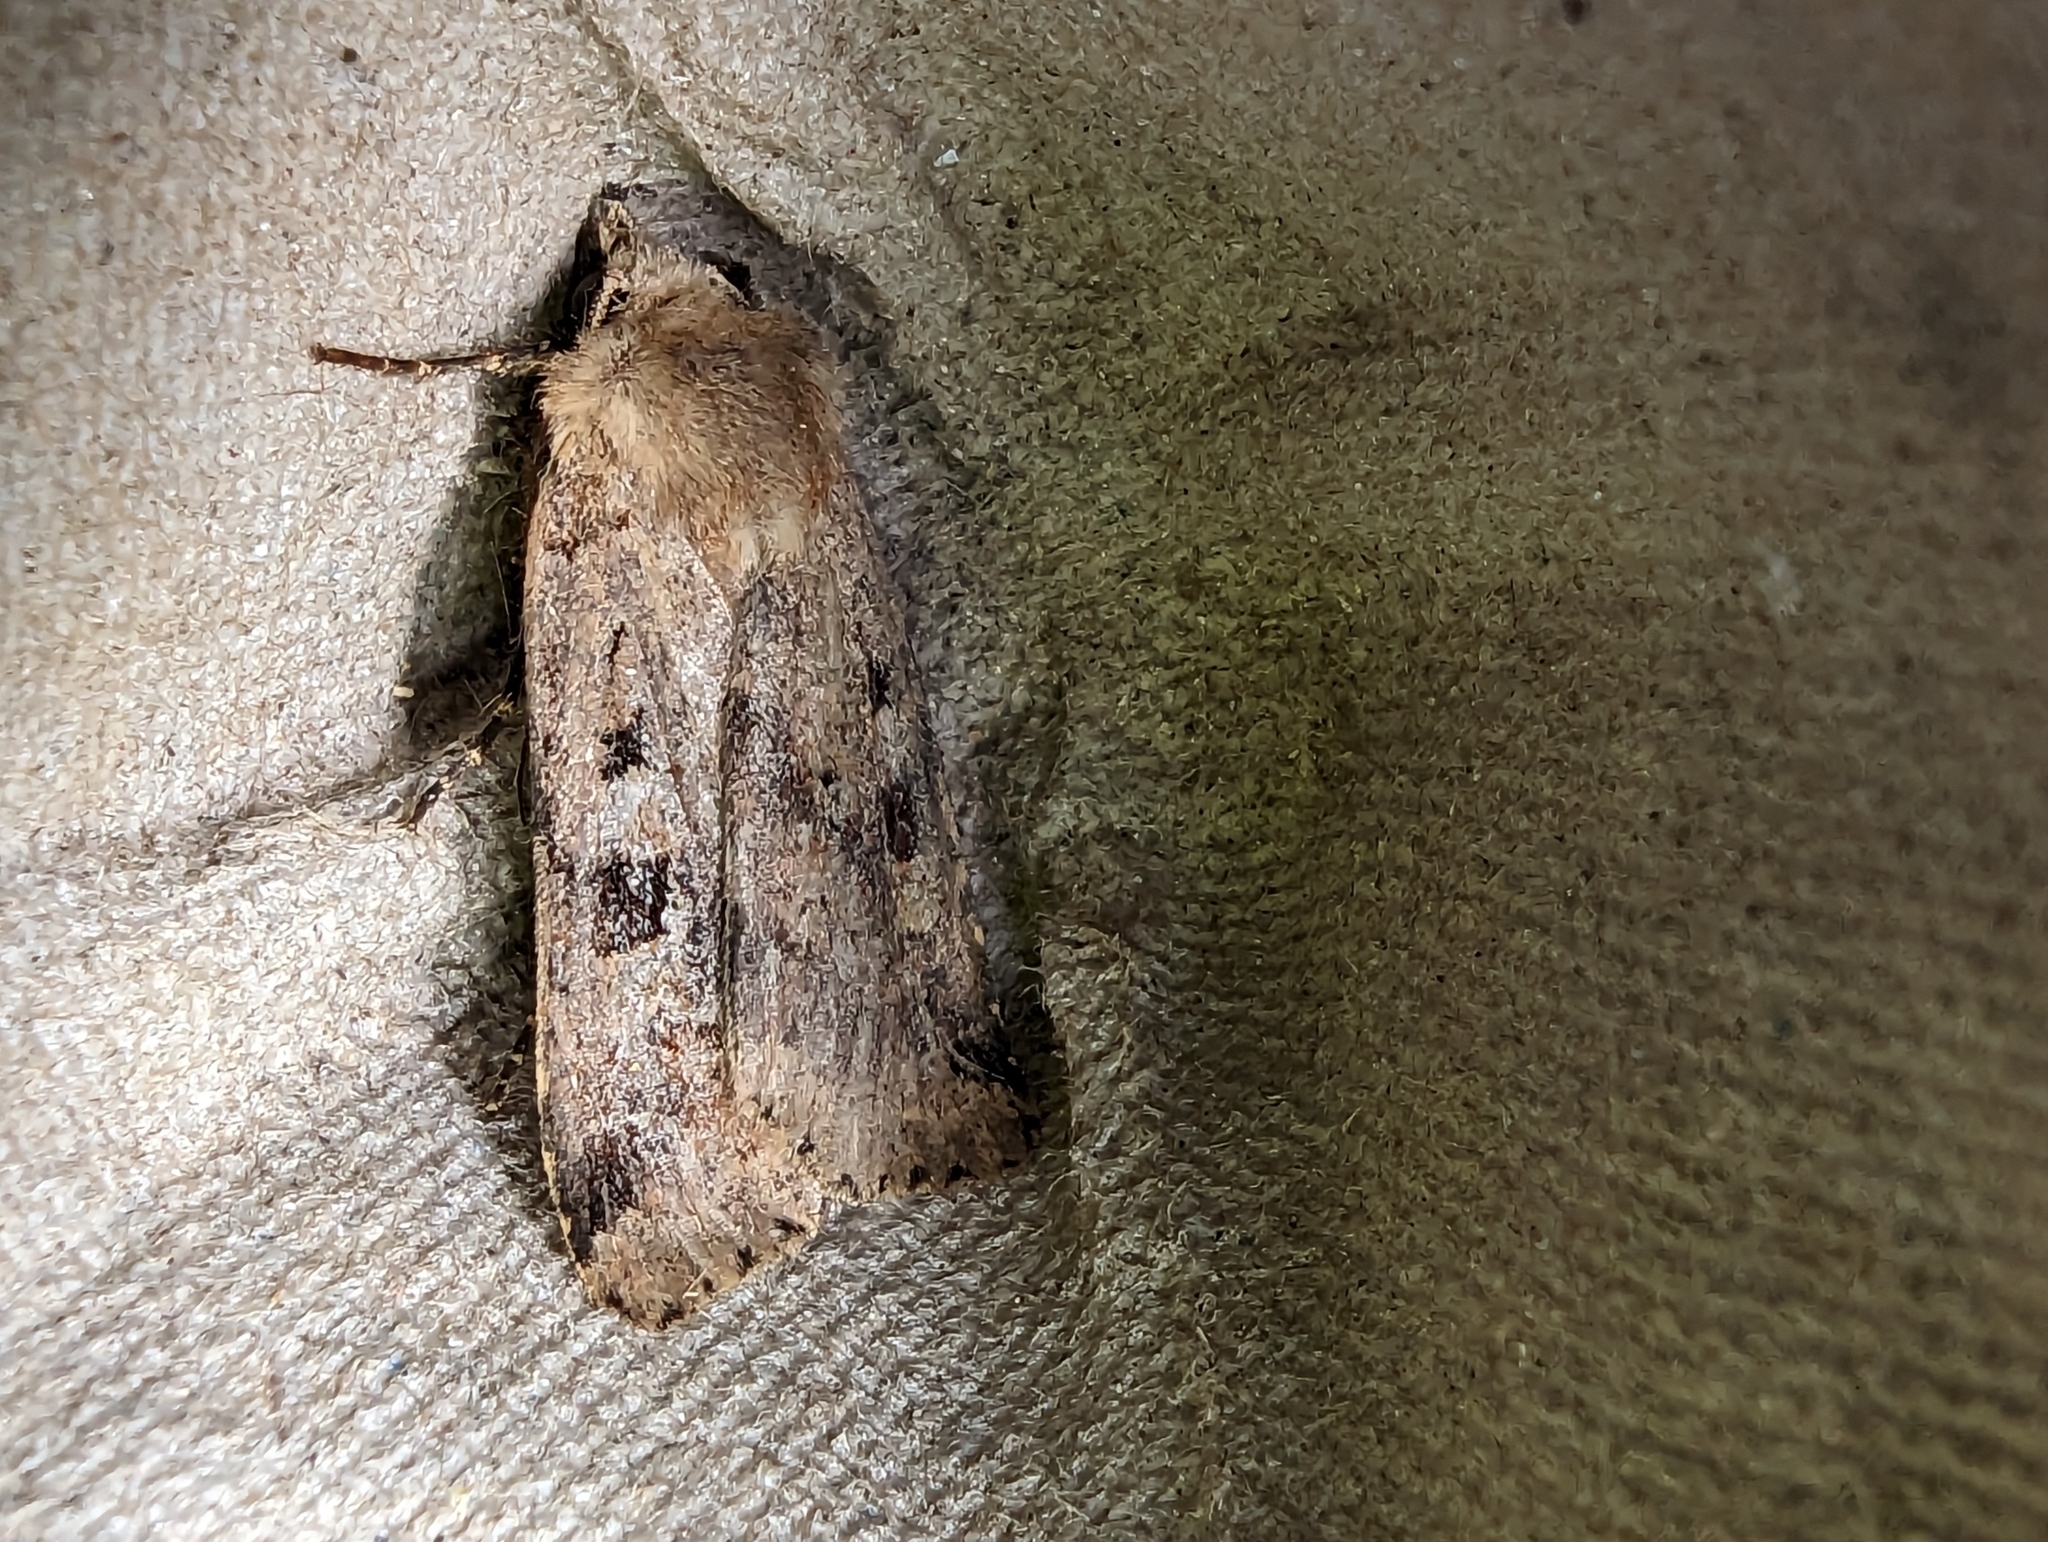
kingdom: Animalia
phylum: Arthropoda
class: Insecta
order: Lepidoptera
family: Noctuidae
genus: Diarsia
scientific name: Diarsia mendica
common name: Ingrailed clay
